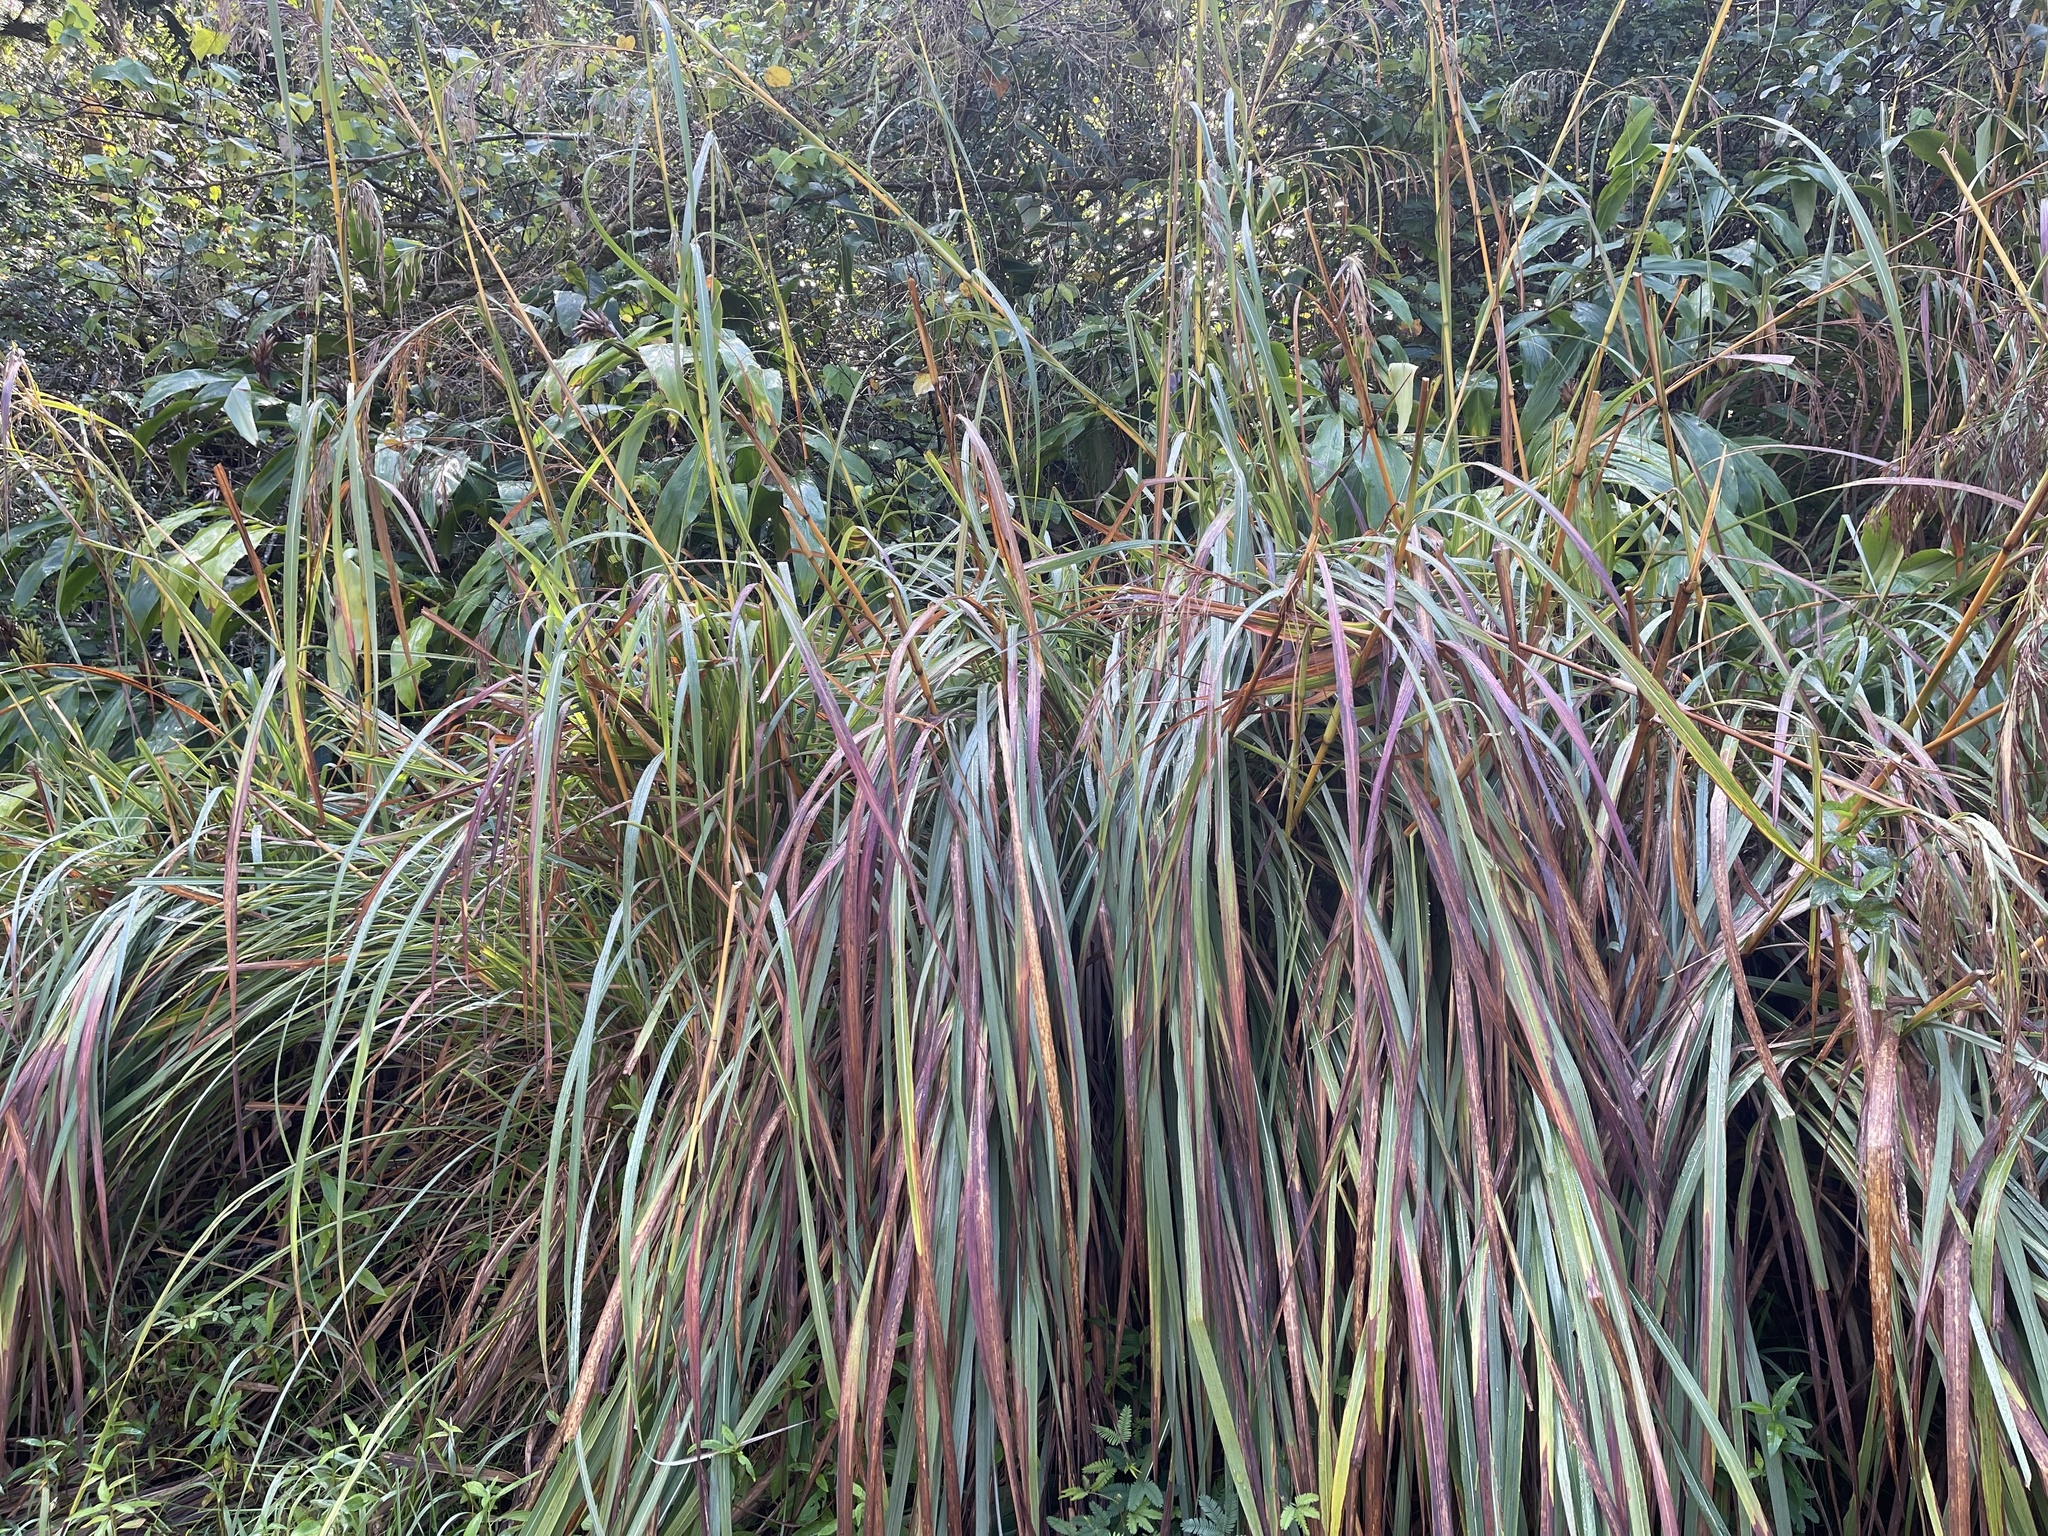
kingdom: Plantae
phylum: Tracheophyta
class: Liliopsida
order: Poales
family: Poaceae
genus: Themeda
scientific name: Themeda villosa
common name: Silky kangaroo grass
